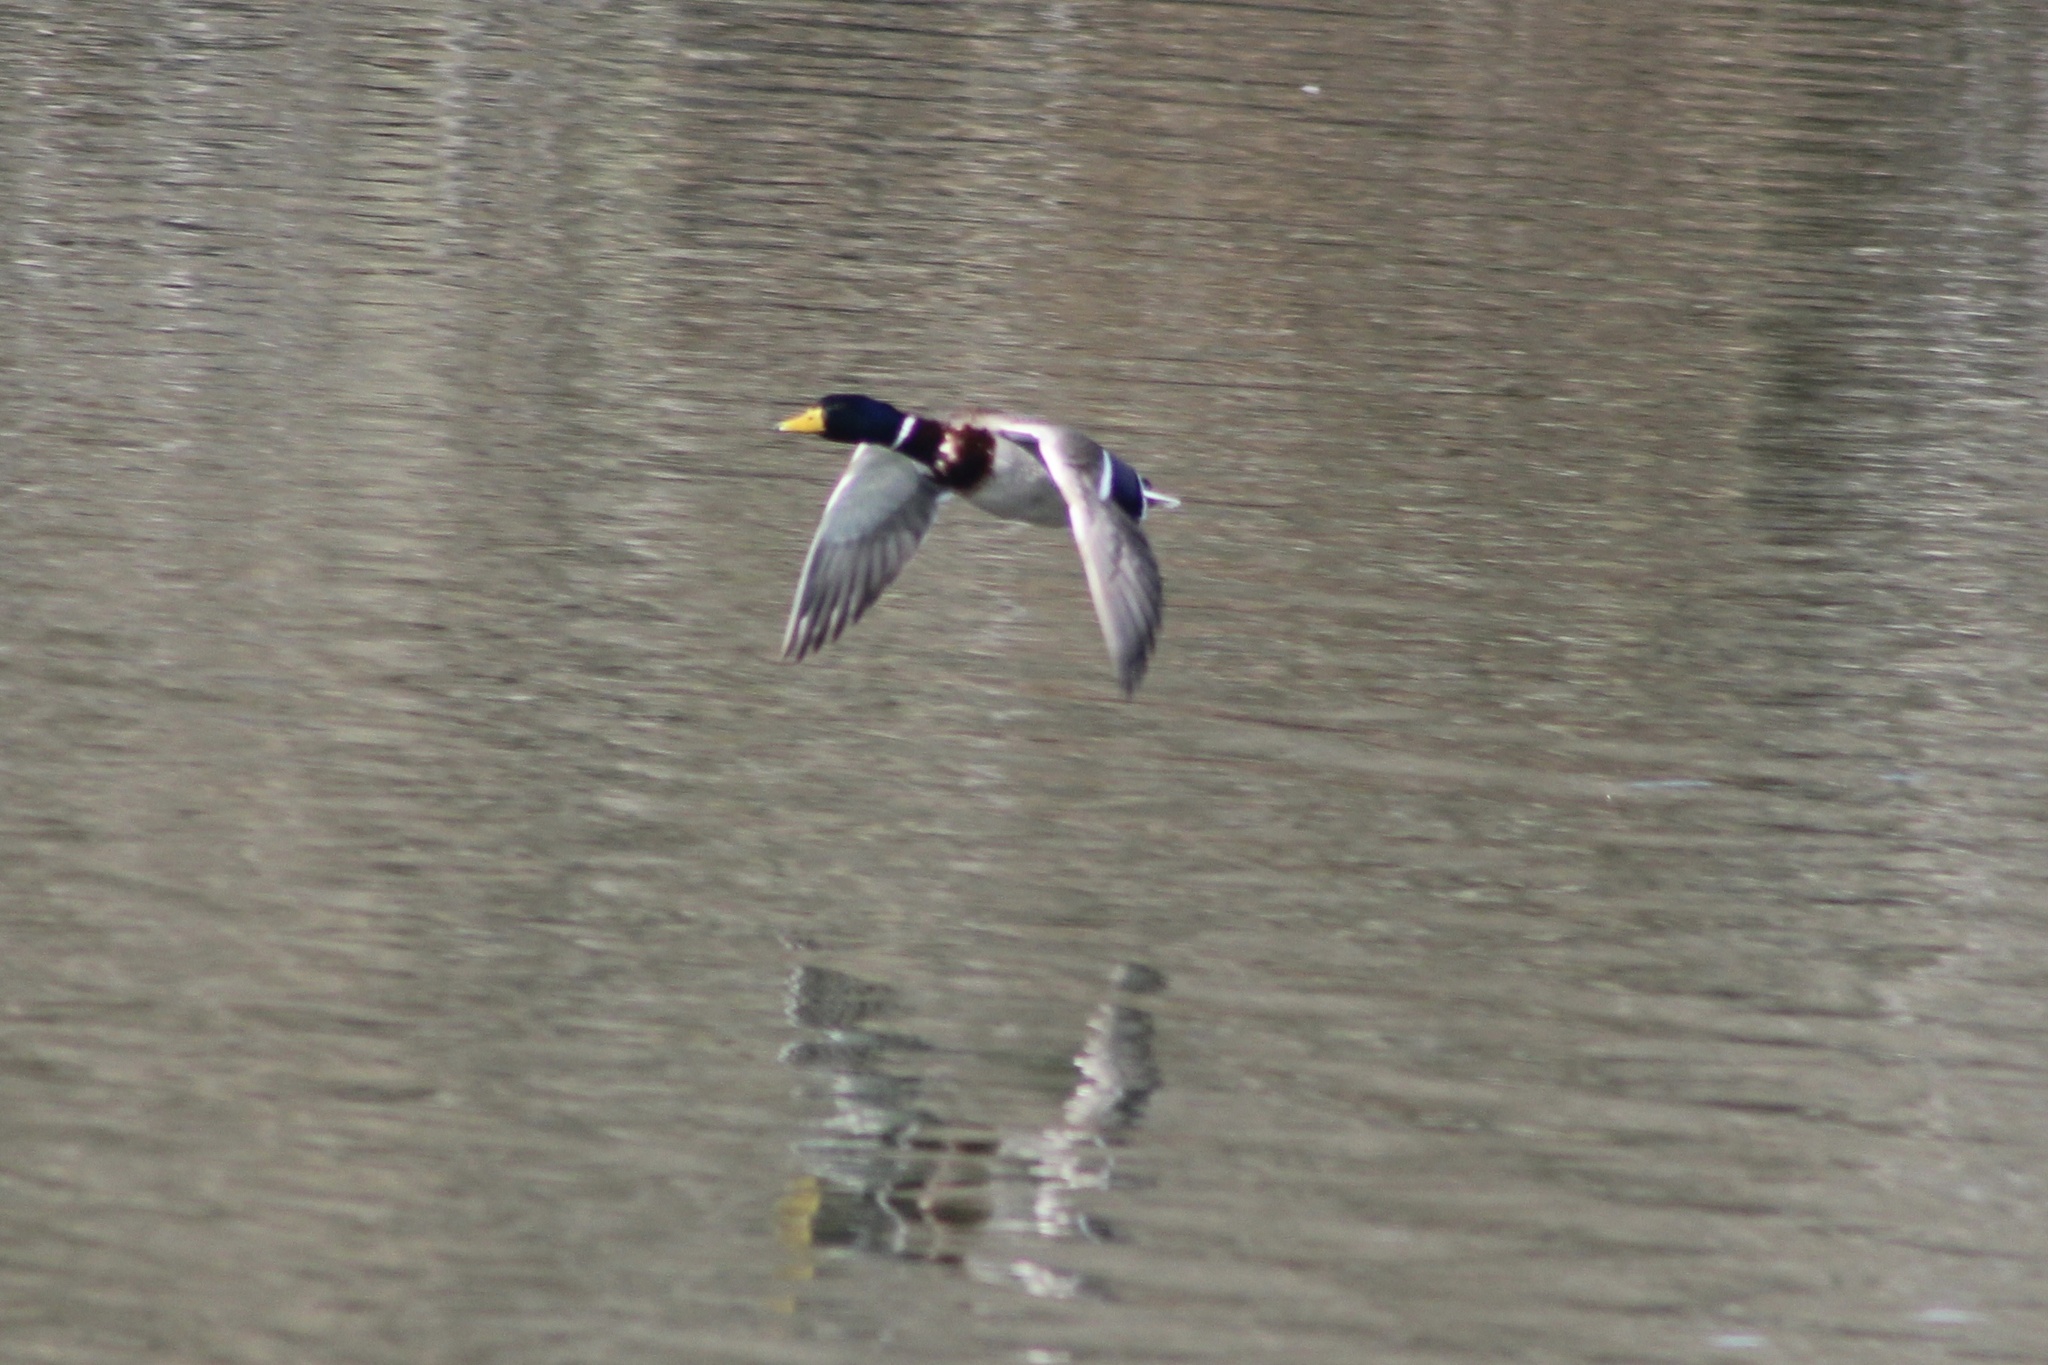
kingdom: Animalia
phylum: Chordata
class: Aves
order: Anseriformes
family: Anatidae
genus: Anas
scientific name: Anas platyrhynchos
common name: Mallard
